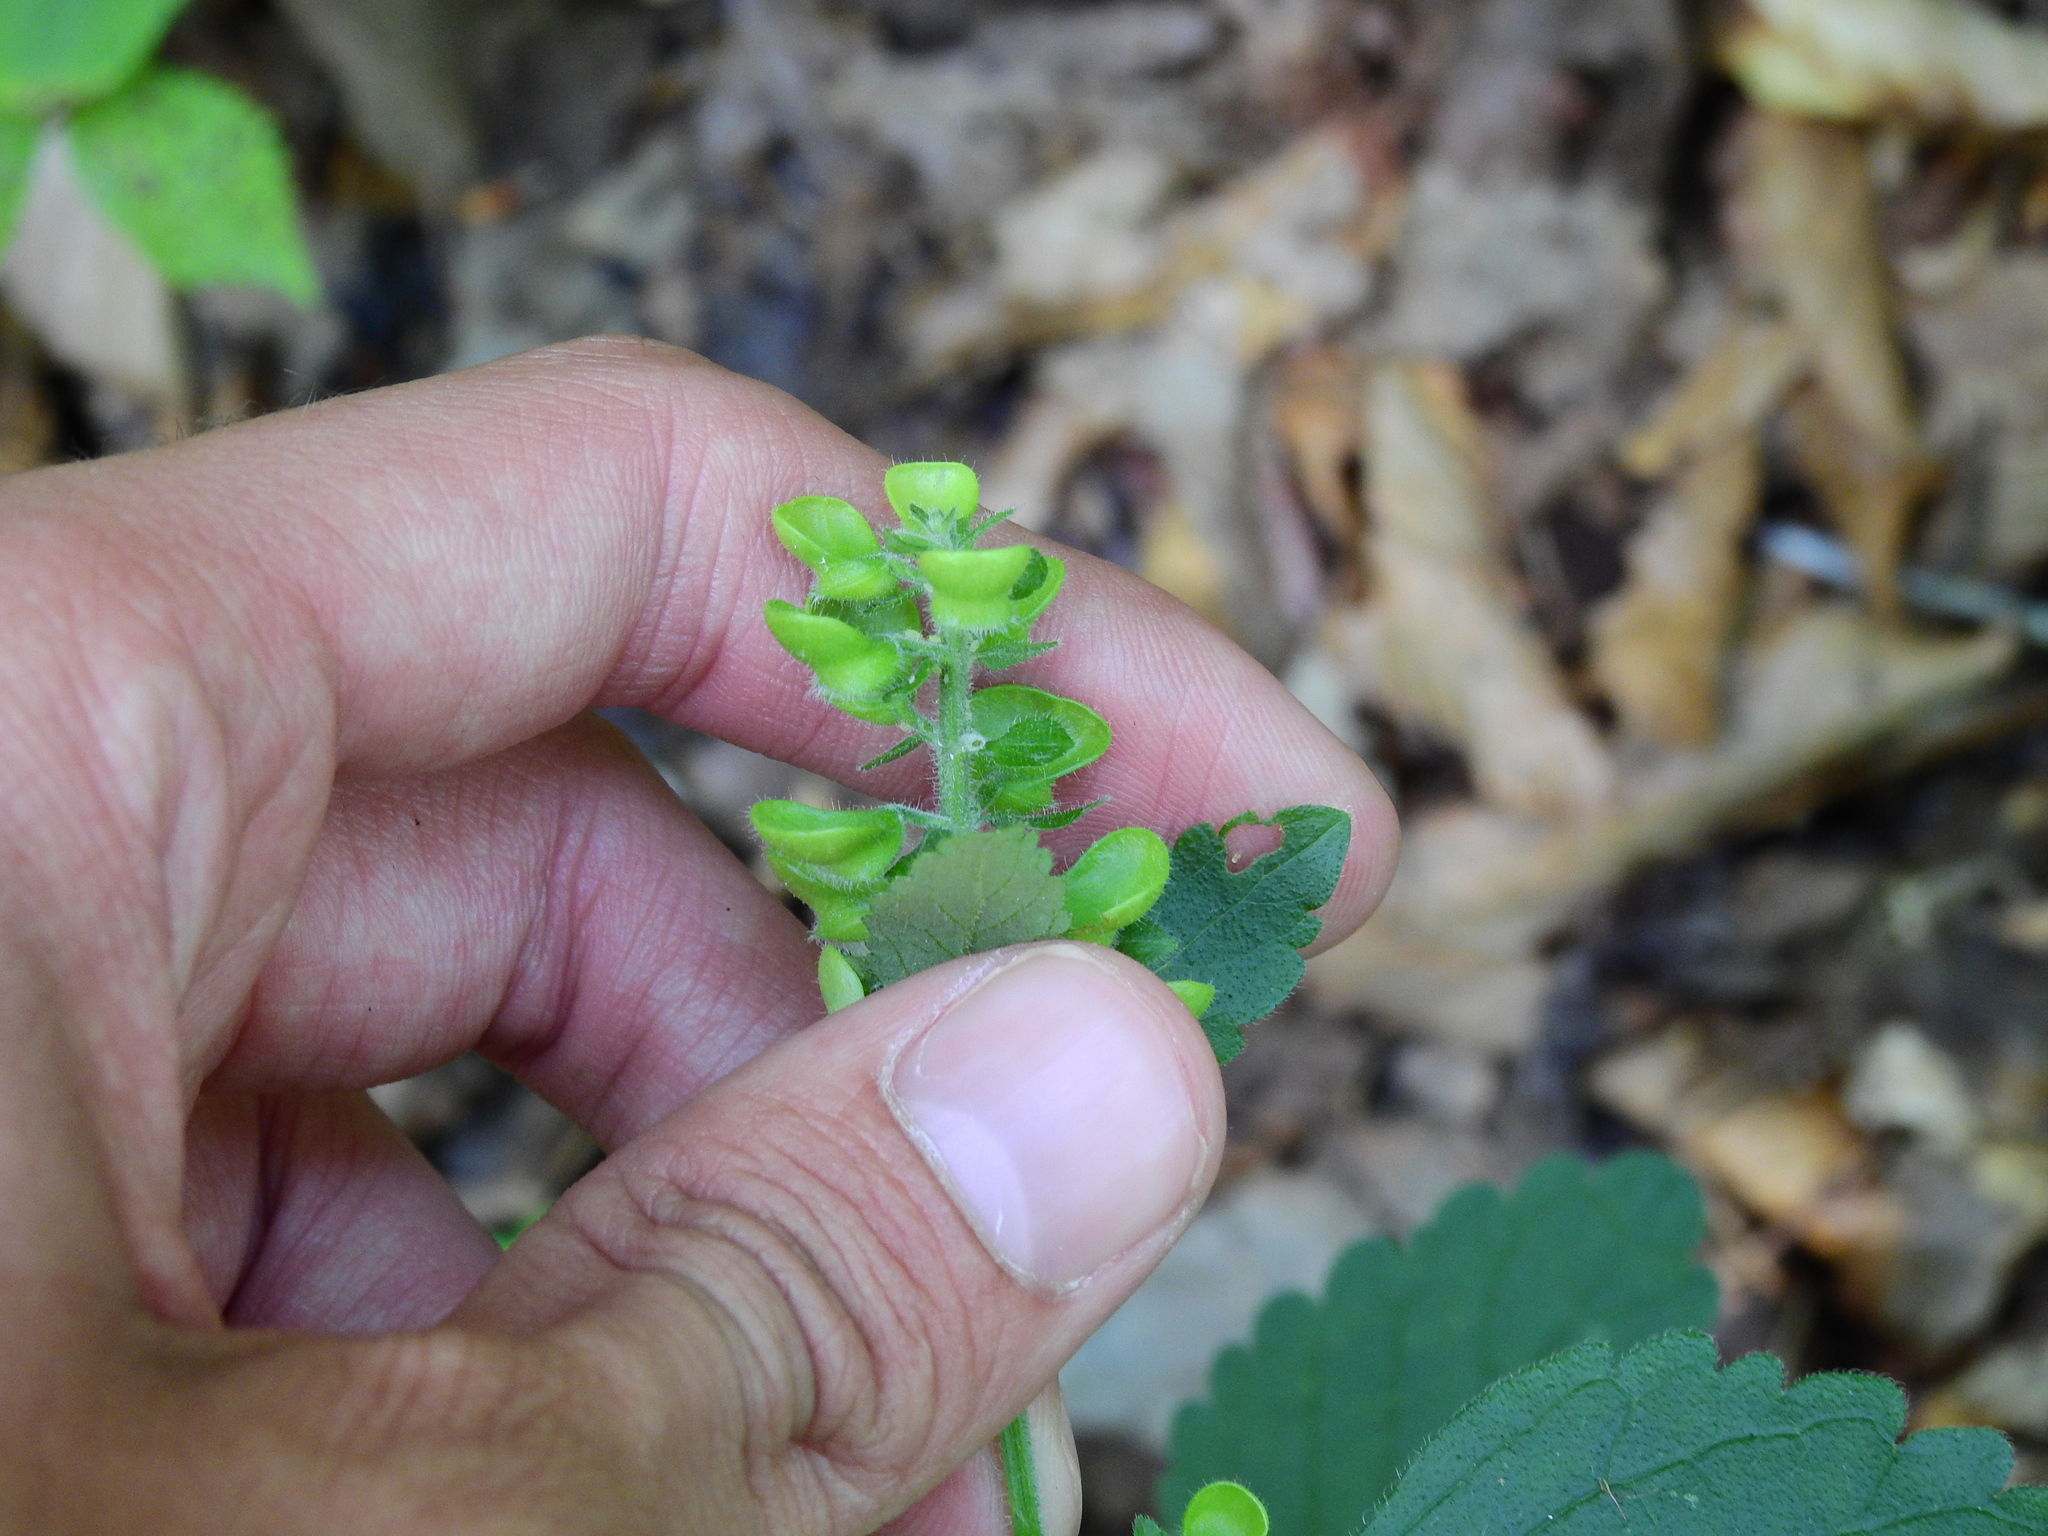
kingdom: Plantae
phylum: Tracheophyta
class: Magnoliopsida
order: Lamiales
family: Lamiaceae
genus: Scutellaria
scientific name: Scutellaria elliptica
